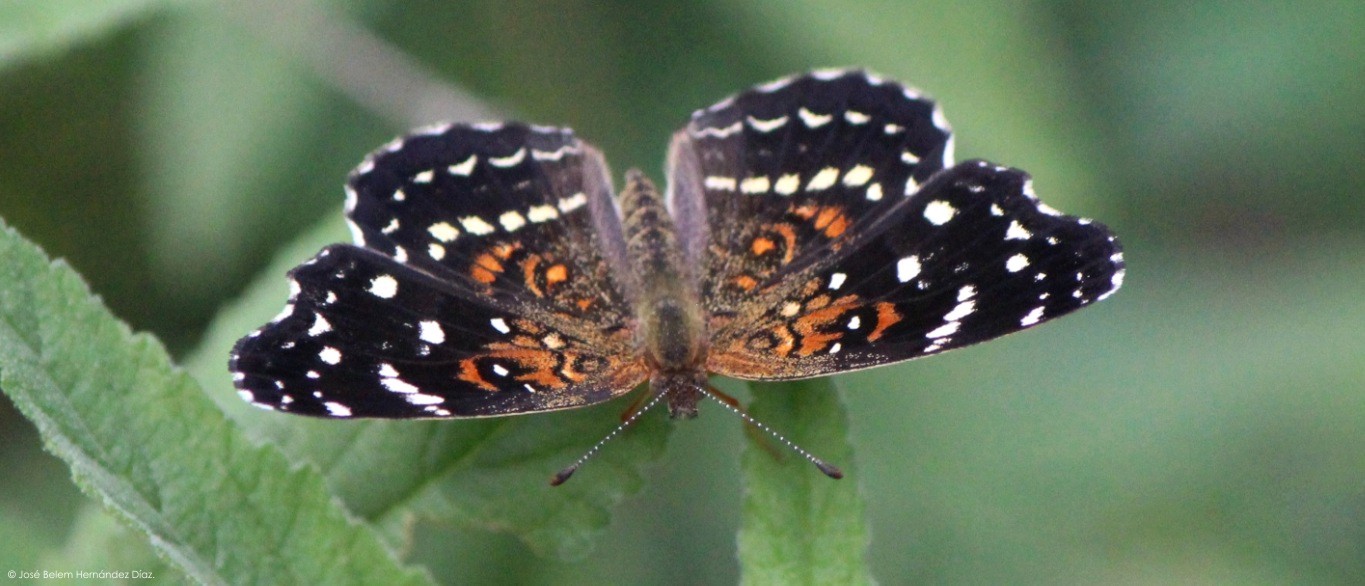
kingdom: Animalia
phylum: Arthropoda
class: Insecta
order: Lepidoptera
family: Nymphalidae
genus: Anthanassa
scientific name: Anthanassa texana
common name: Texan crescent
